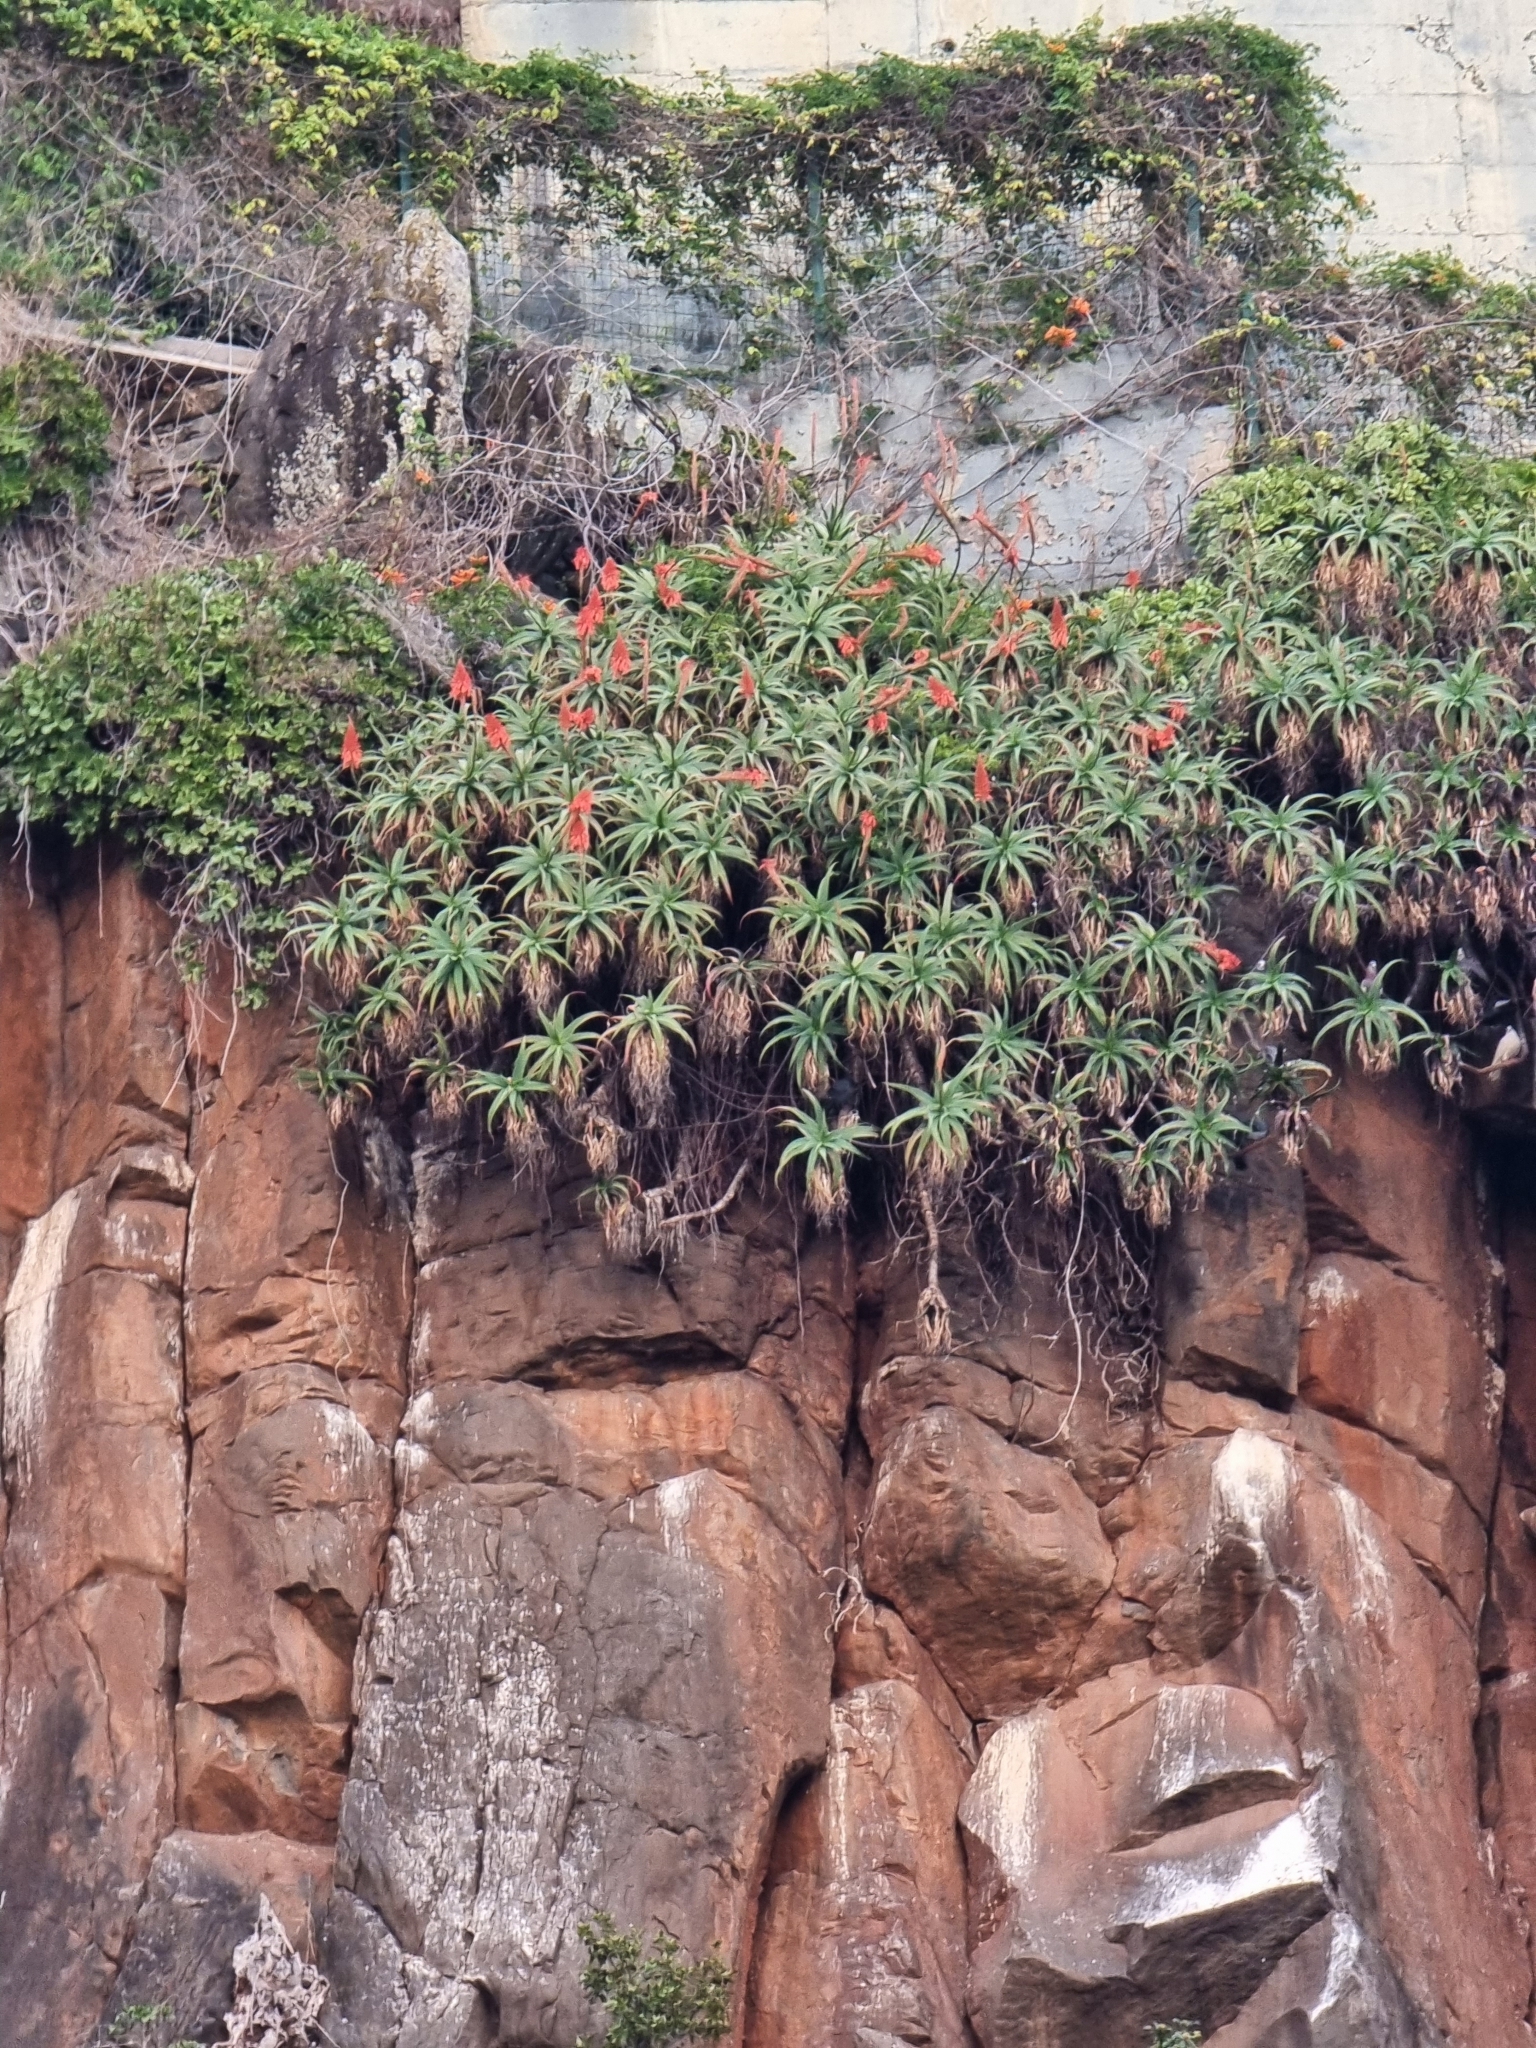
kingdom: Plantae
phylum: Tracheophyta
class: Liliopsida
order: Asparagales
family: Asphodelaceae
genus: Aloe
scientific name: Aloe arborescens
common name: Candelabra aloe
